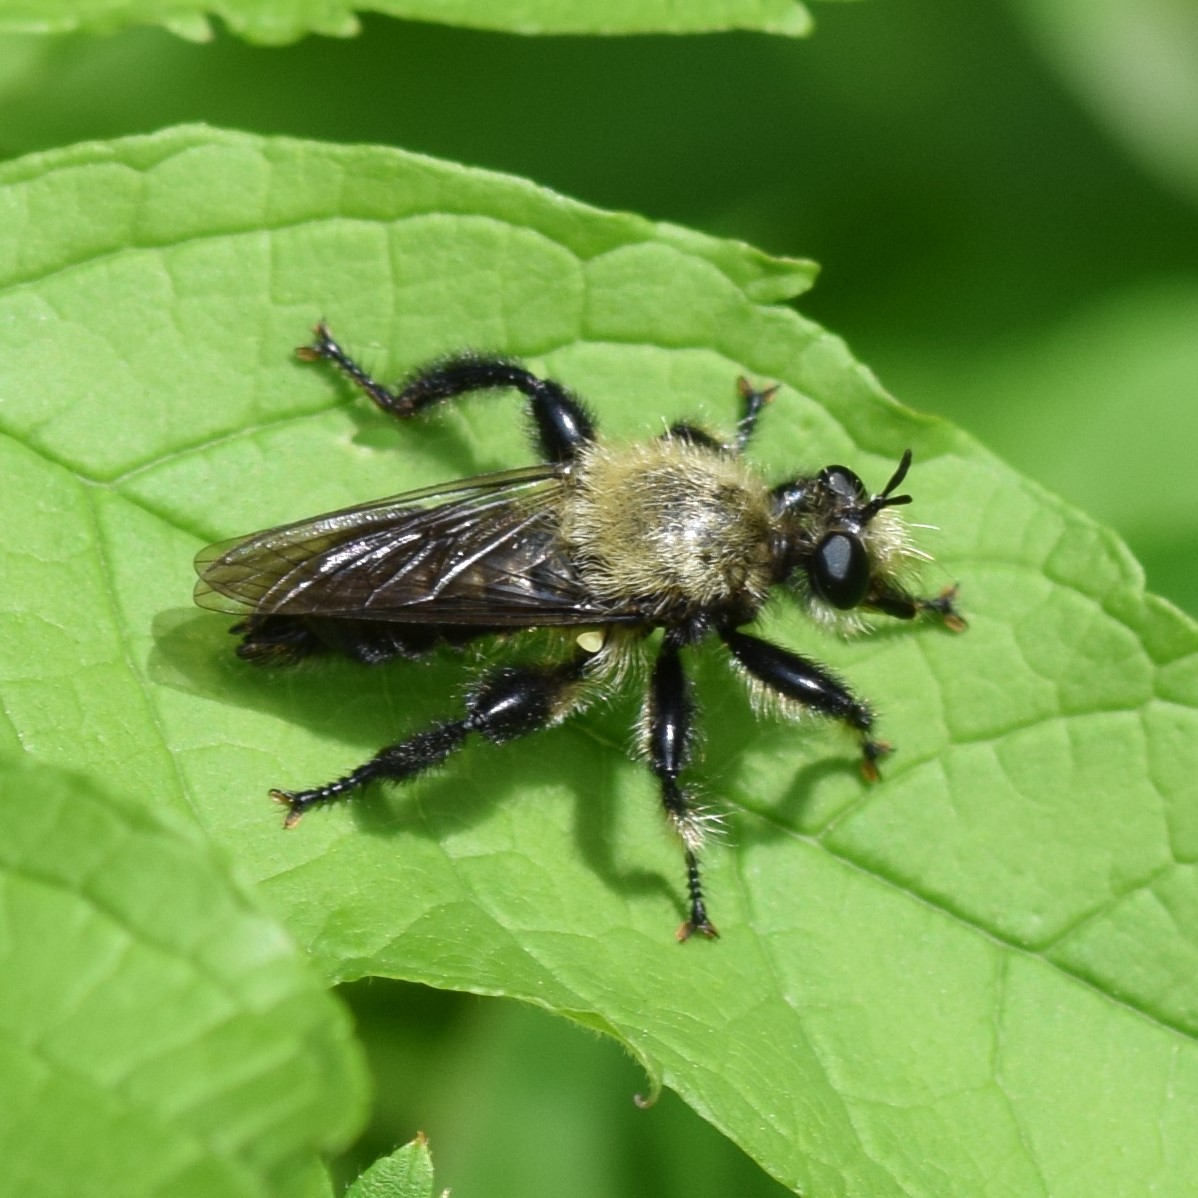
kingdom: Animalia
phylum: Arthropoda
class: Insecta
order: Diptera
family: Asilidae
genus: Laphria
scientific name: Laphria flavicollis
